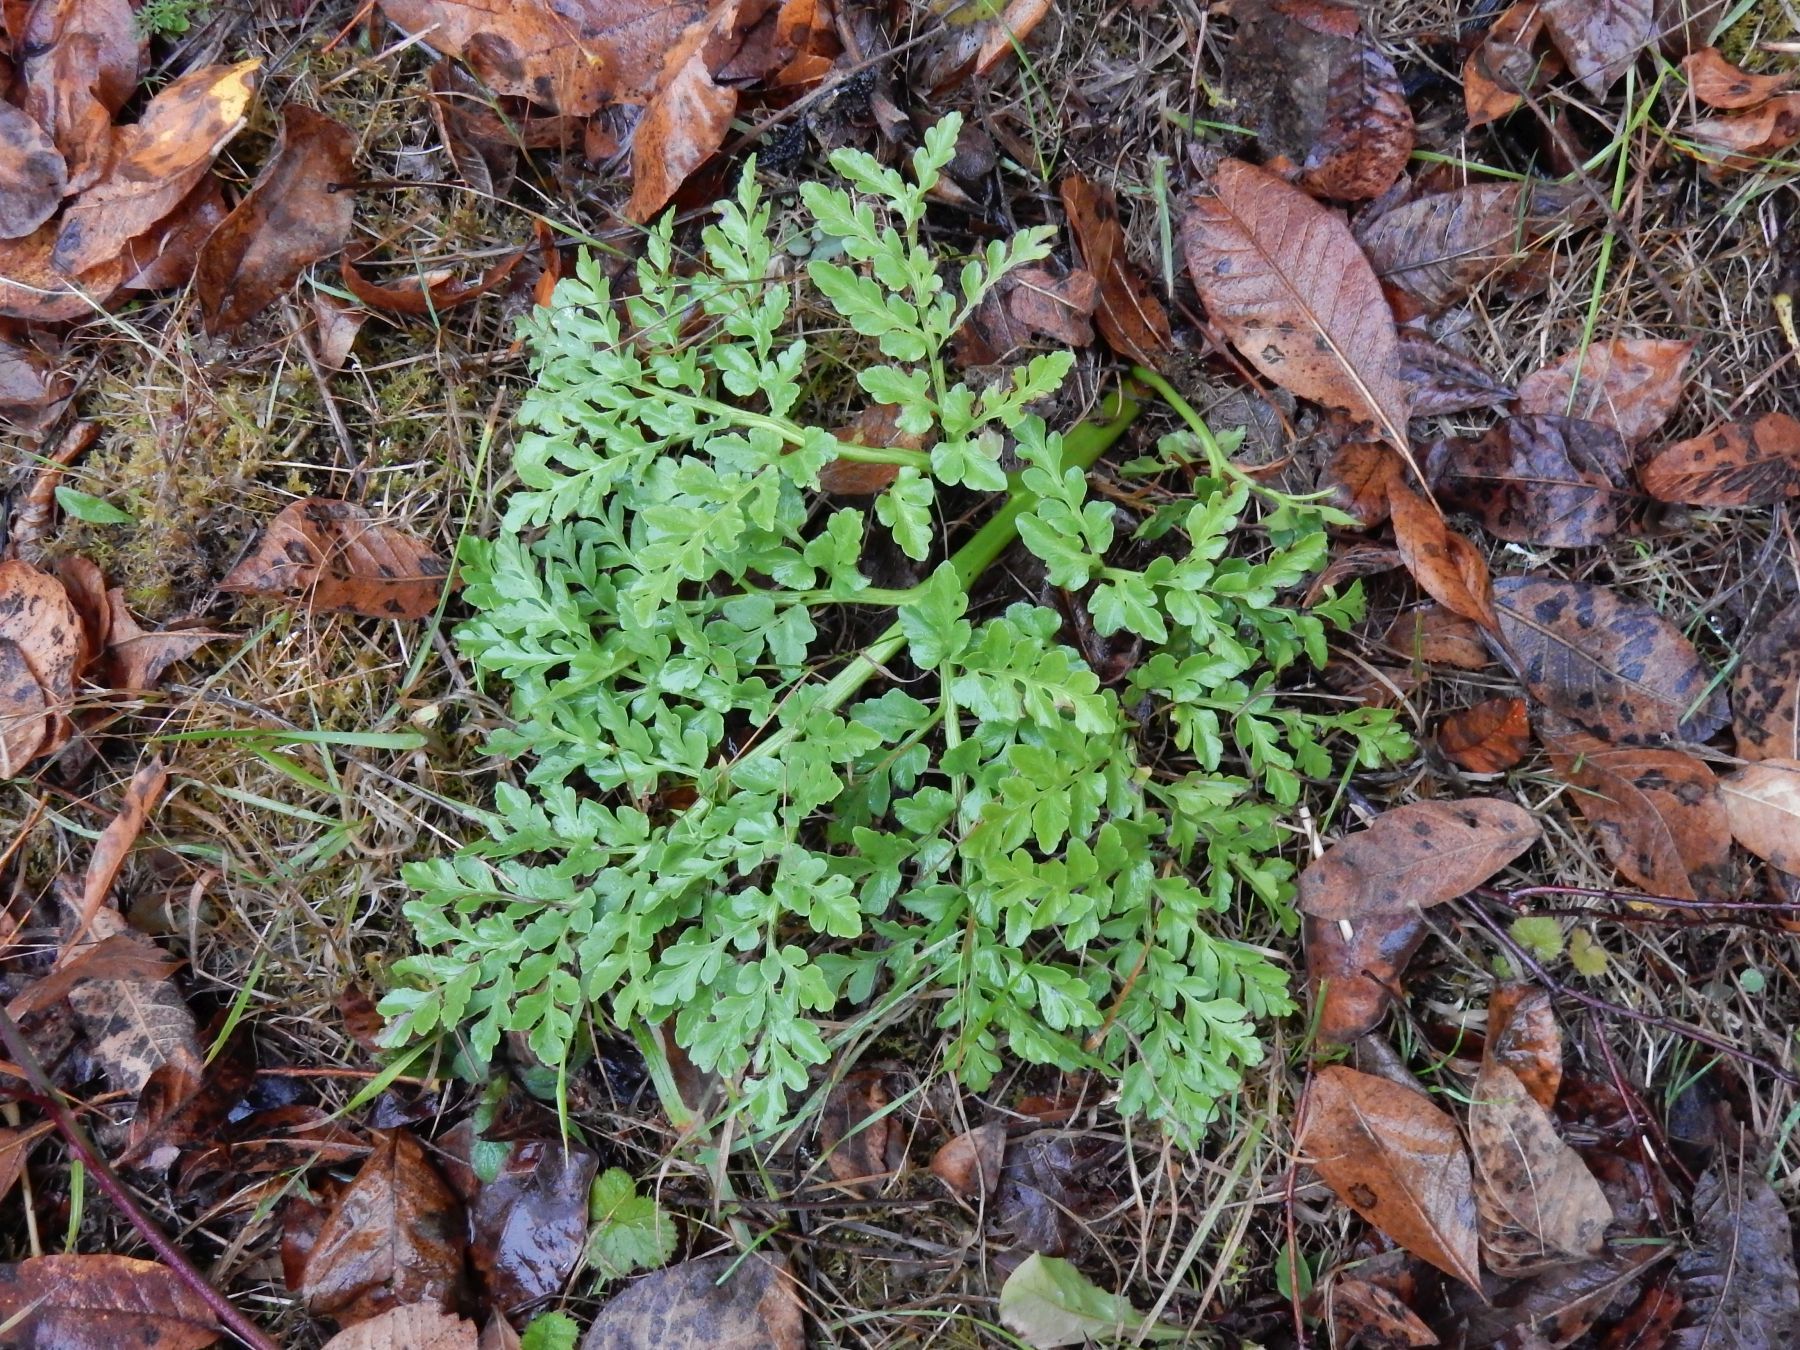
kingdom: Plantae
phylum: Tracheophyta
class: Polypodiopsida
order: Ophioglossales
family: Ophioglossaceae
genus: Sceptridium
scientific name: Sceptridium multifidum
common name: Leathery grape fern
